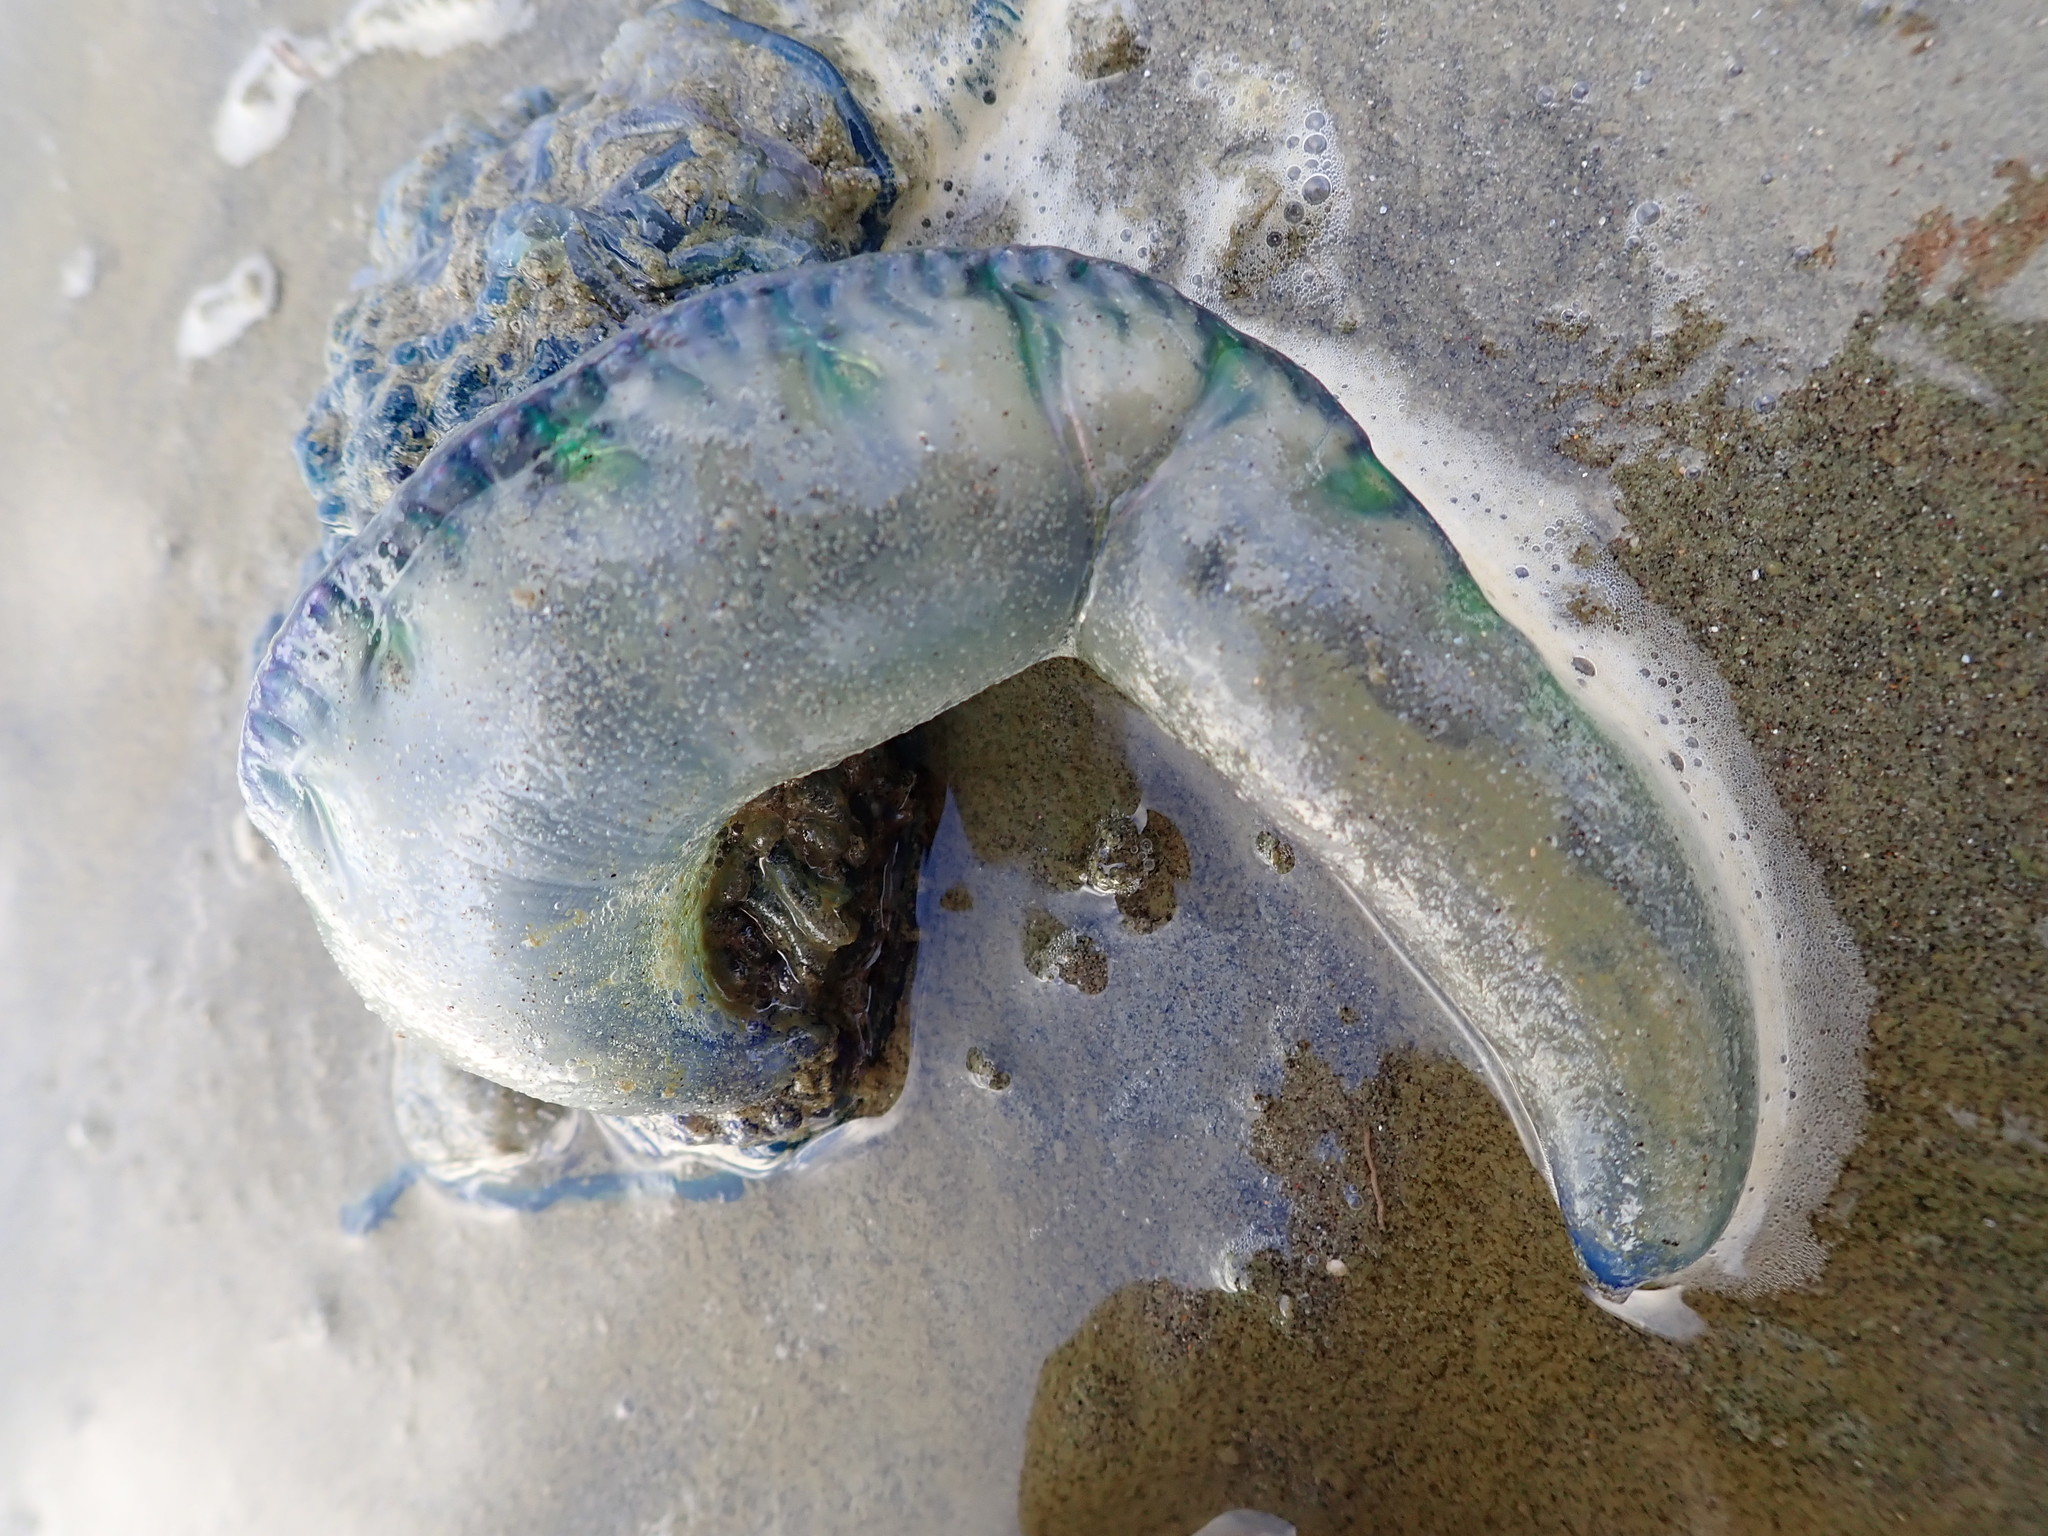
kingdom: Animalia
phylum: Cnidaria
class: Hydrozoa
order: Siphonophorae
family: Physaliidae
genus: Physalia
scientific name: Physalia physalis
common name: Portuguese man-of-war
